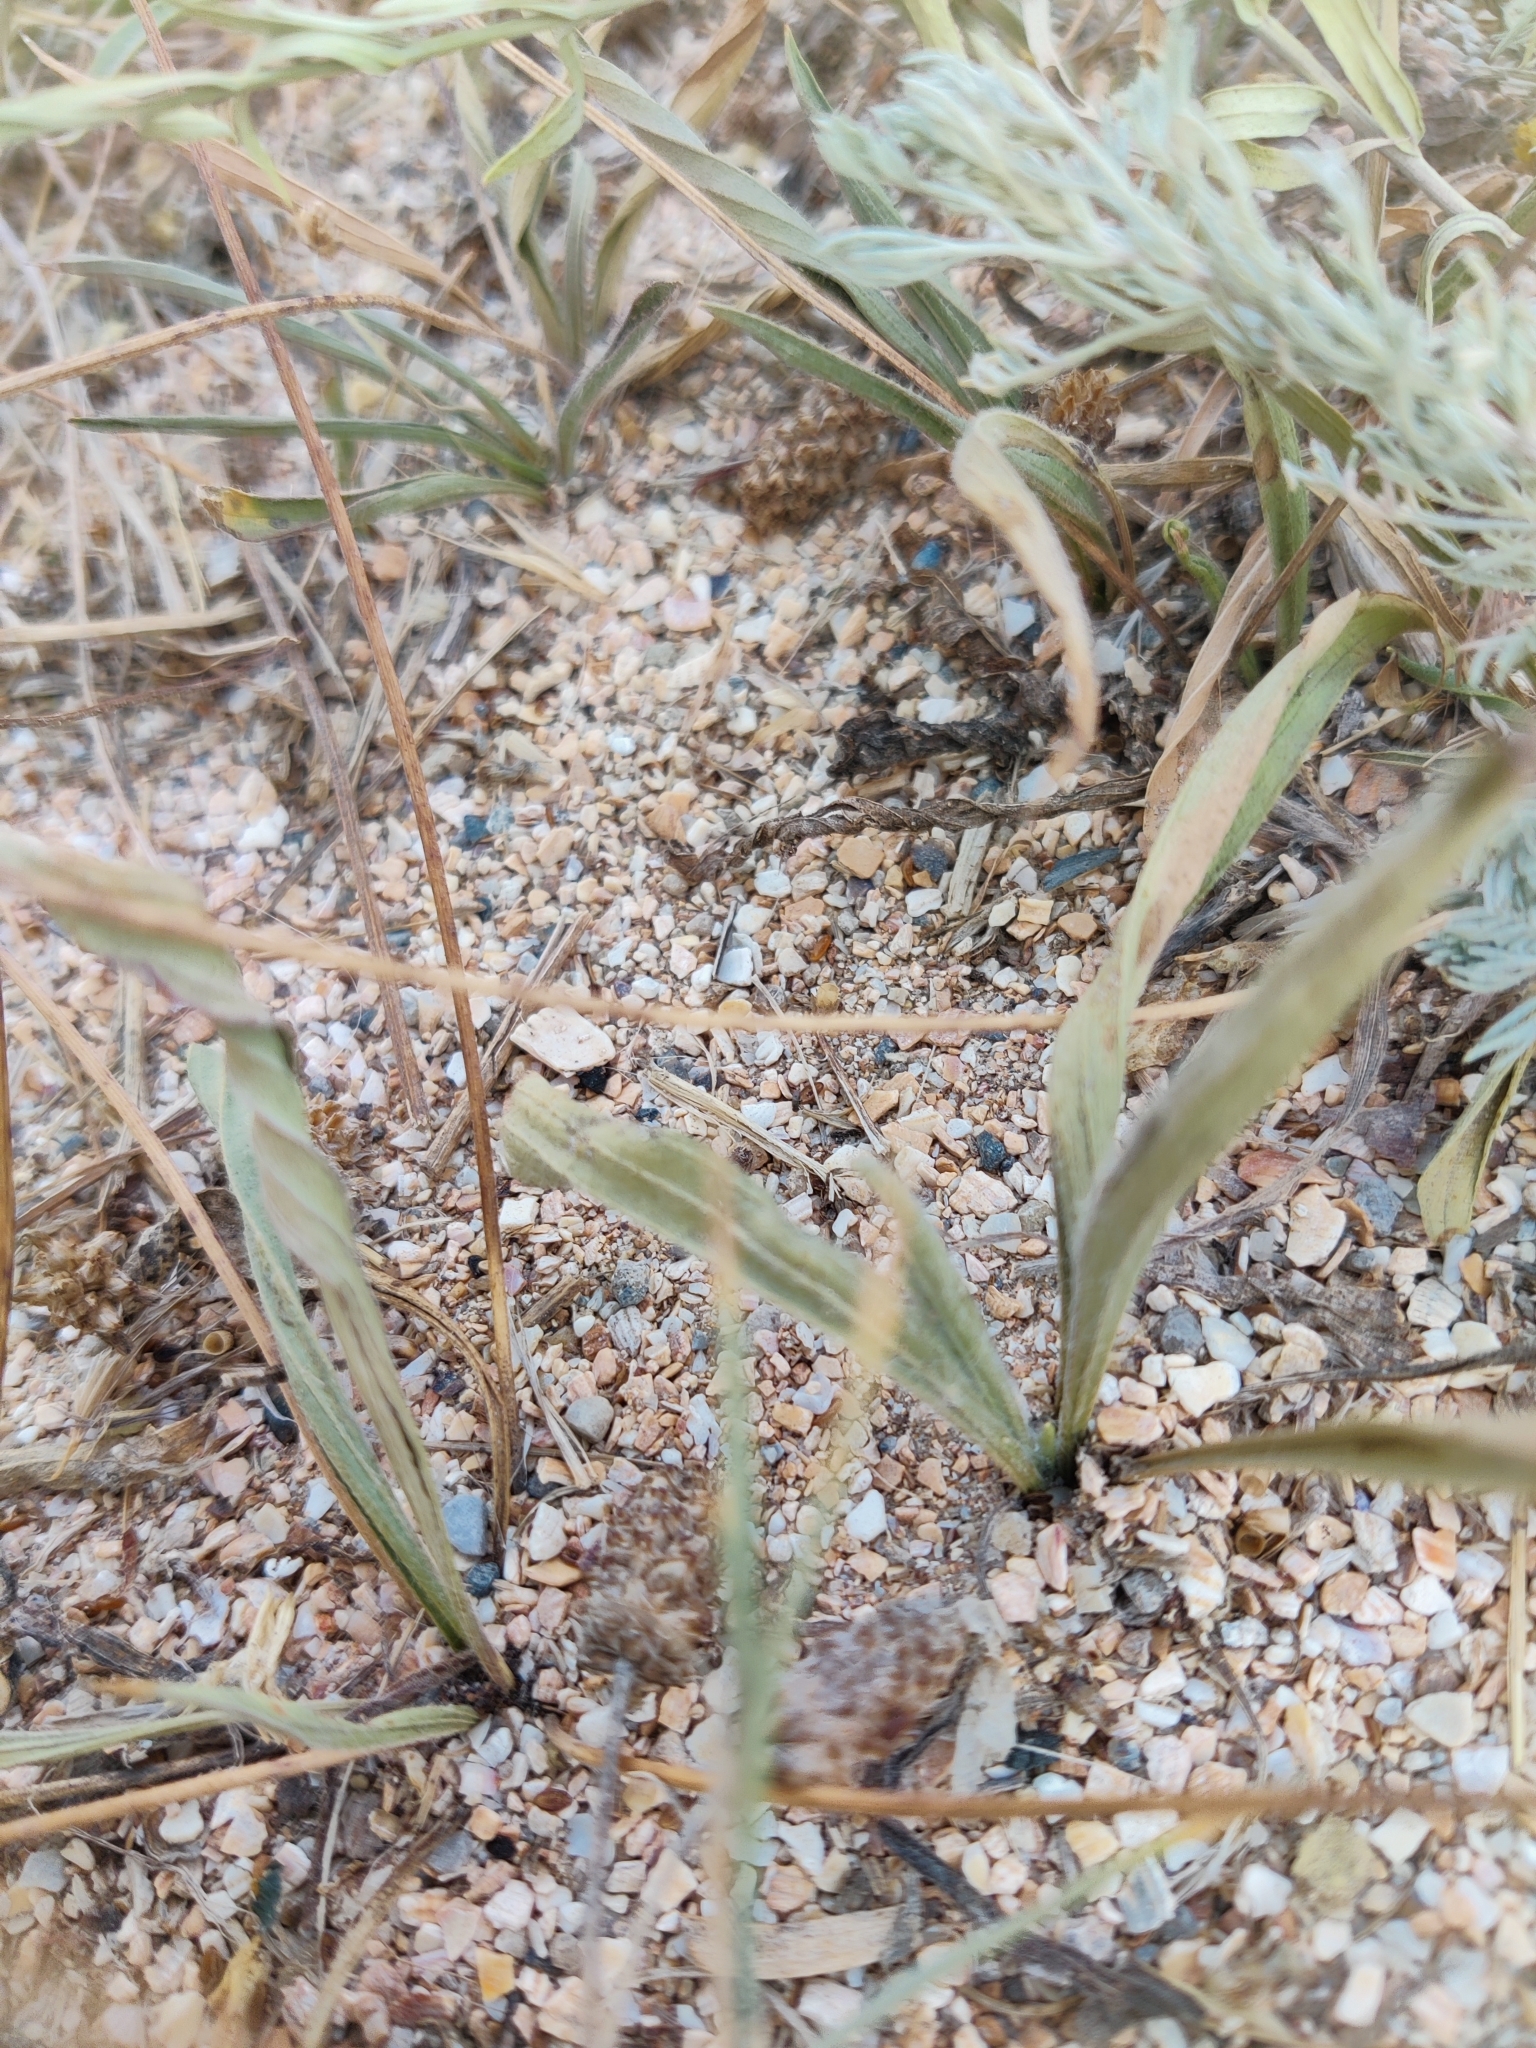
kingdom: Plantae
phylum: Tracheophyta
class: Magnoliopsida
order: Lamiales
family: Plantaginaceae
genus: Plantago
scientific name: Plantago lanceolata
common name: Ribwort plantain
